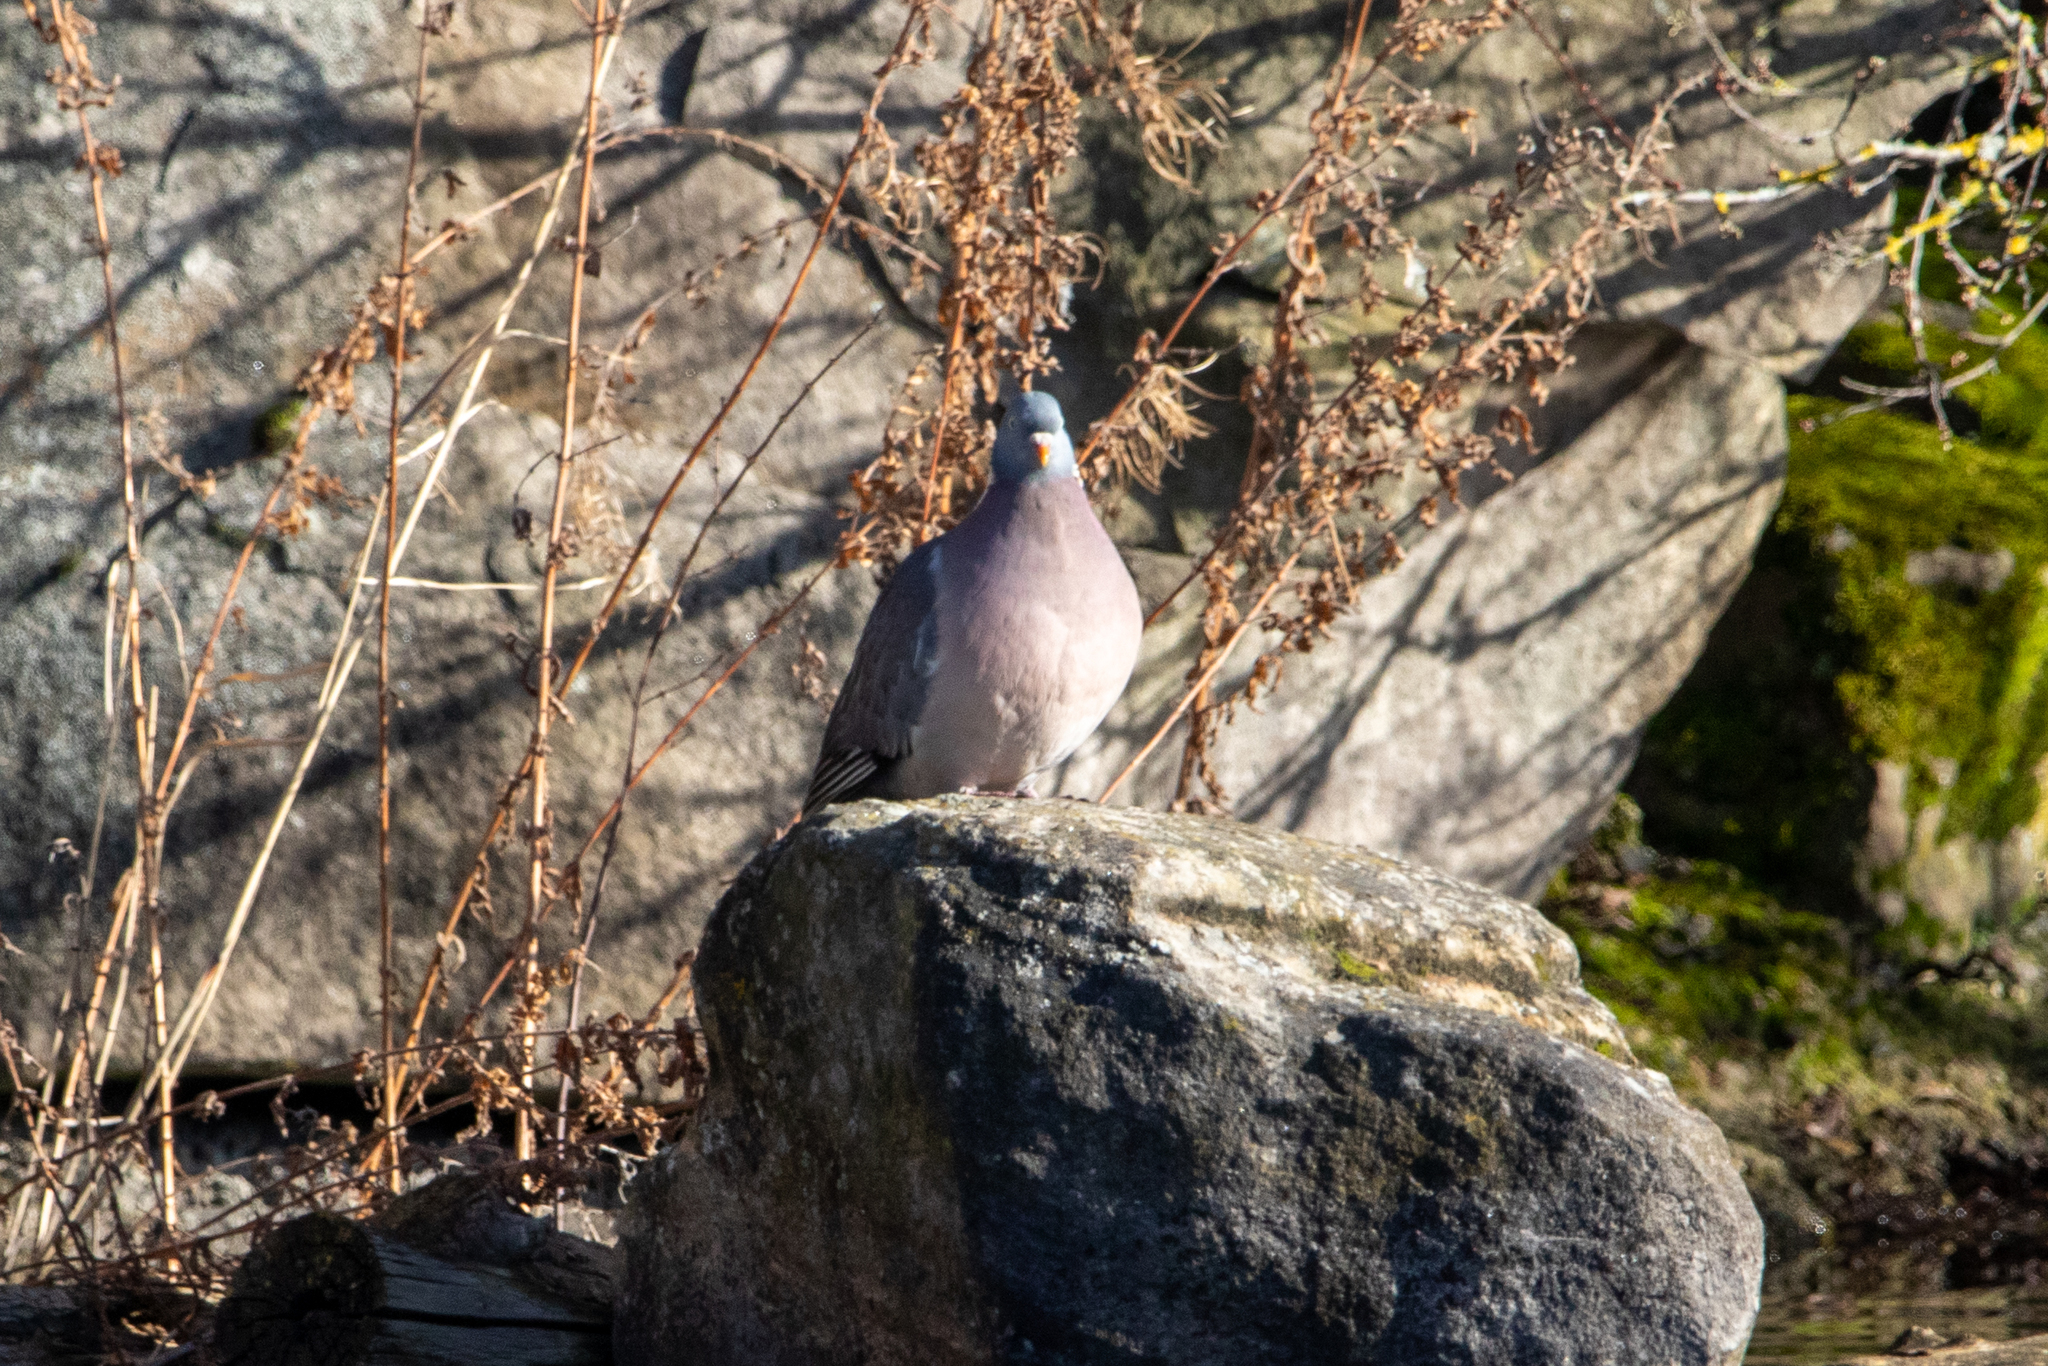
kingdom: Animalia
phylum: Chordata
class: Aves
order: Columbiformes
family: Columbidae
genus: Columba
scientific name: Columba palumbus
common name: Common wood pigeon
